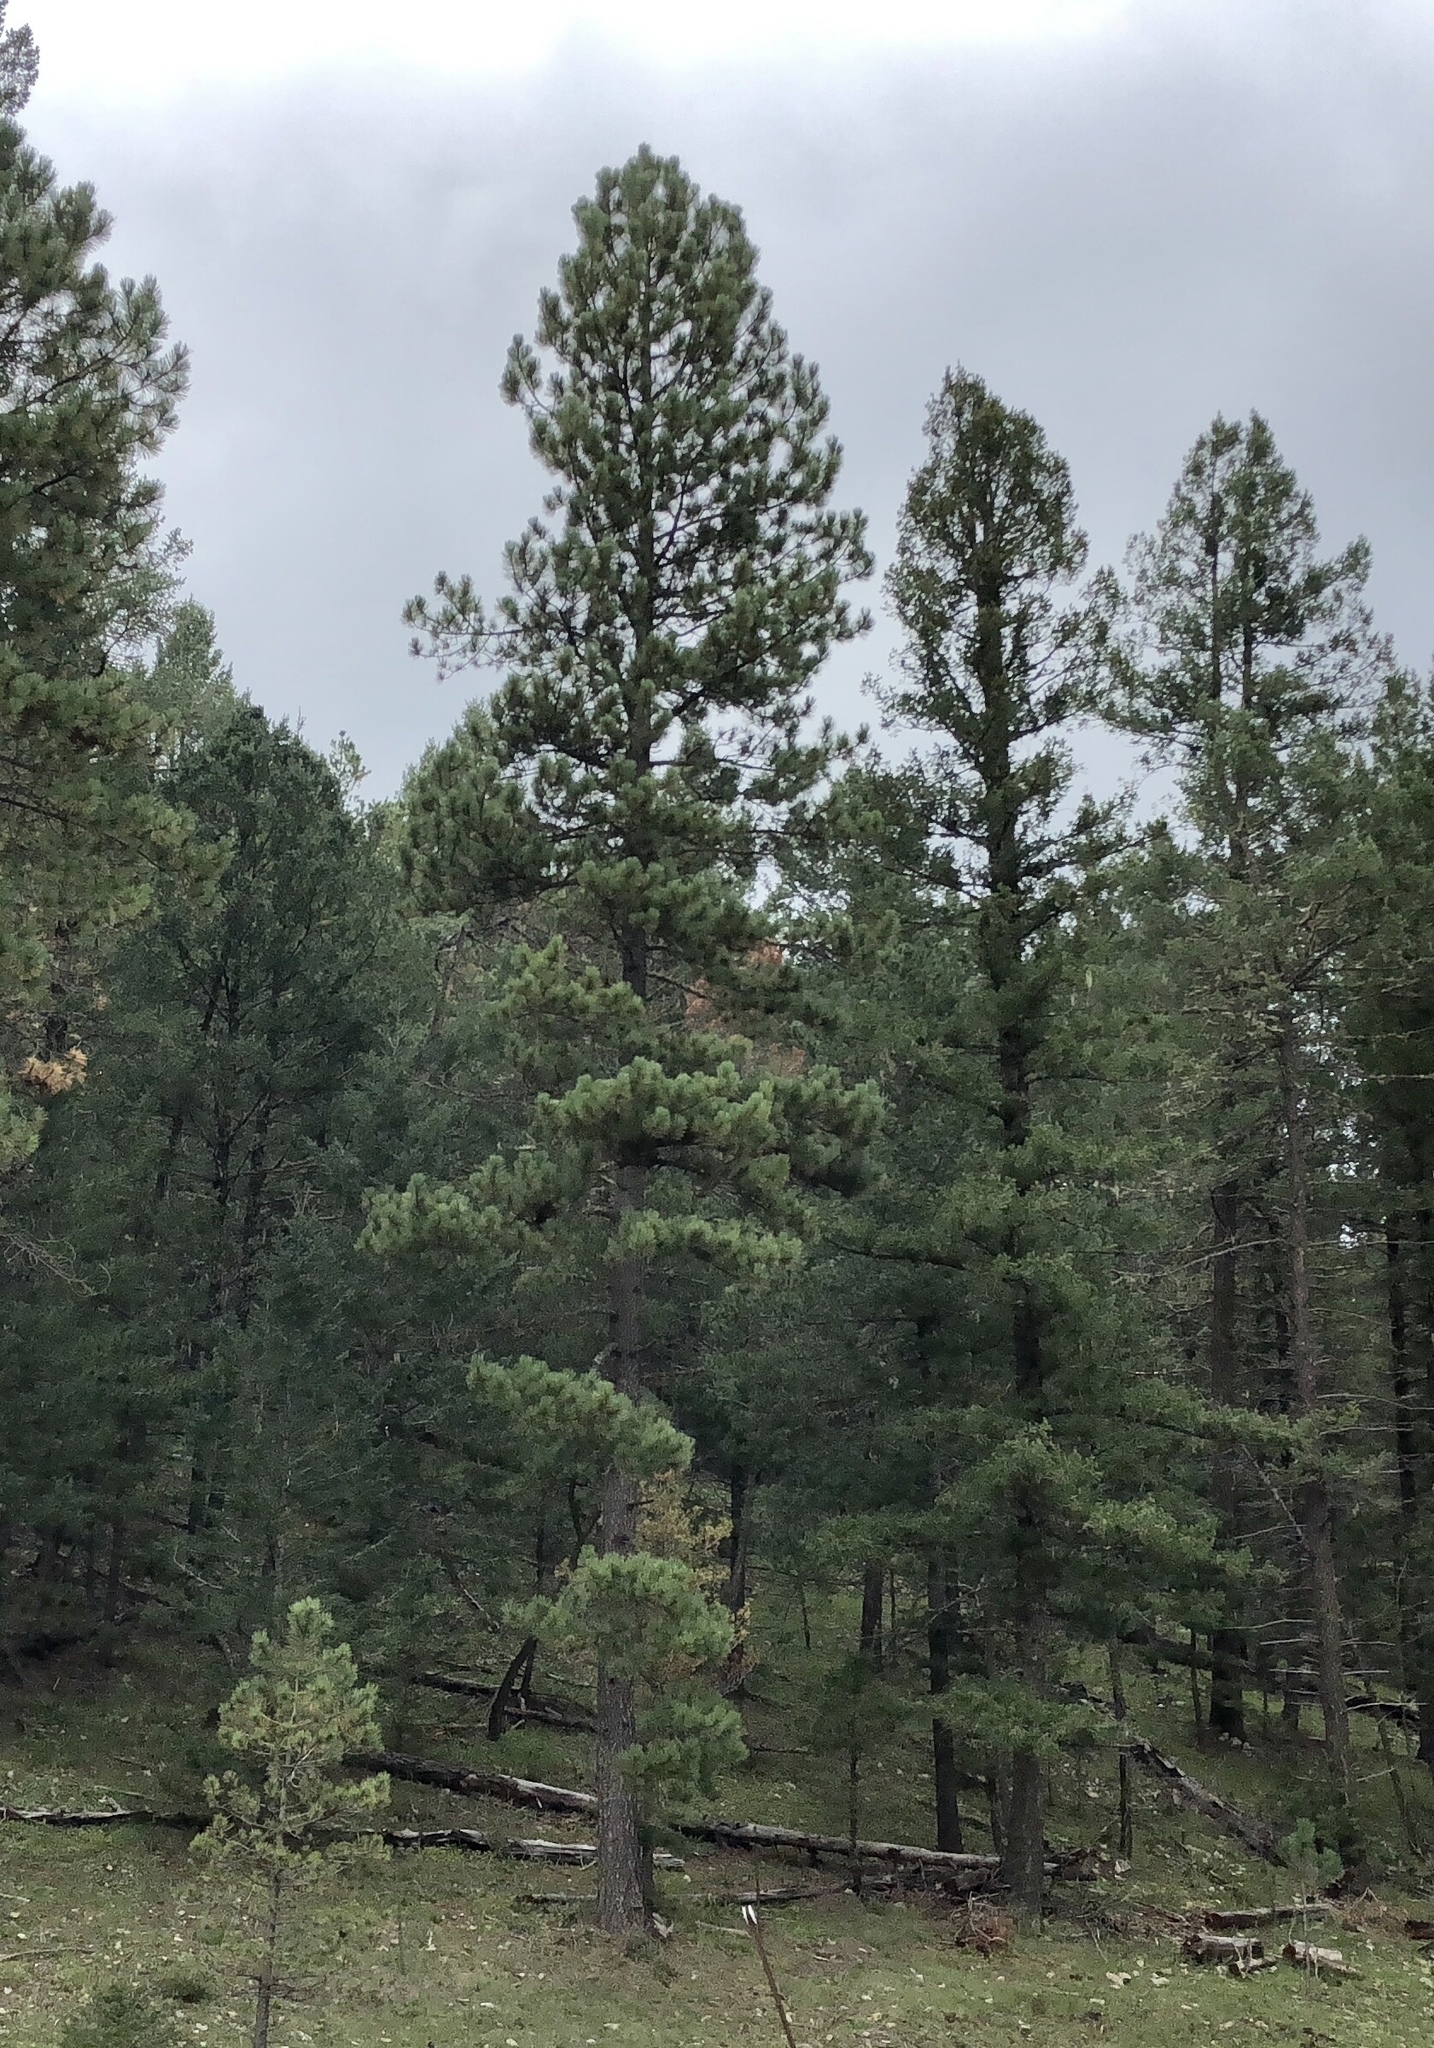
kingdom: Plantae
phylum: Tracheophyta
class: Pinopsida
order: Pinales
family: Pinaceae
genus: Pinus
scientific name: Pinus ponderosa
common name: Western yellow-pine
